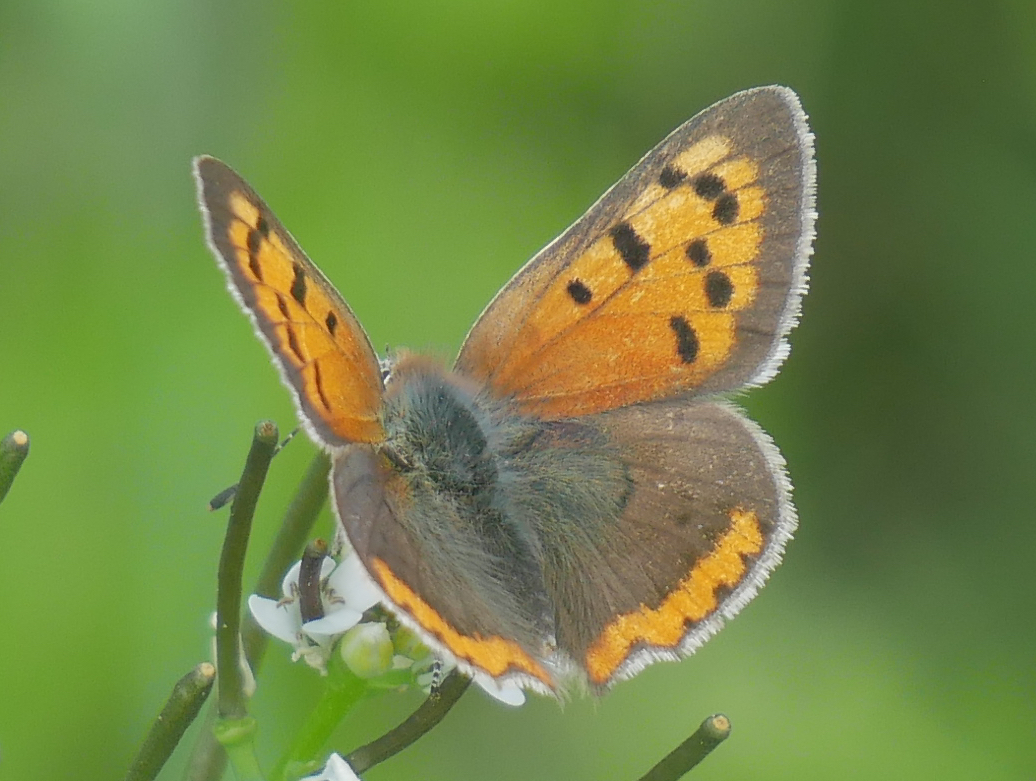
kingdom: Animalia
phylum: Arthropoda
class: Insecta
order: Lepidoptera
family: Lycaenidae
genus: Lycaena
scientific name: Lycaena phlaeas
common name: Small copper
